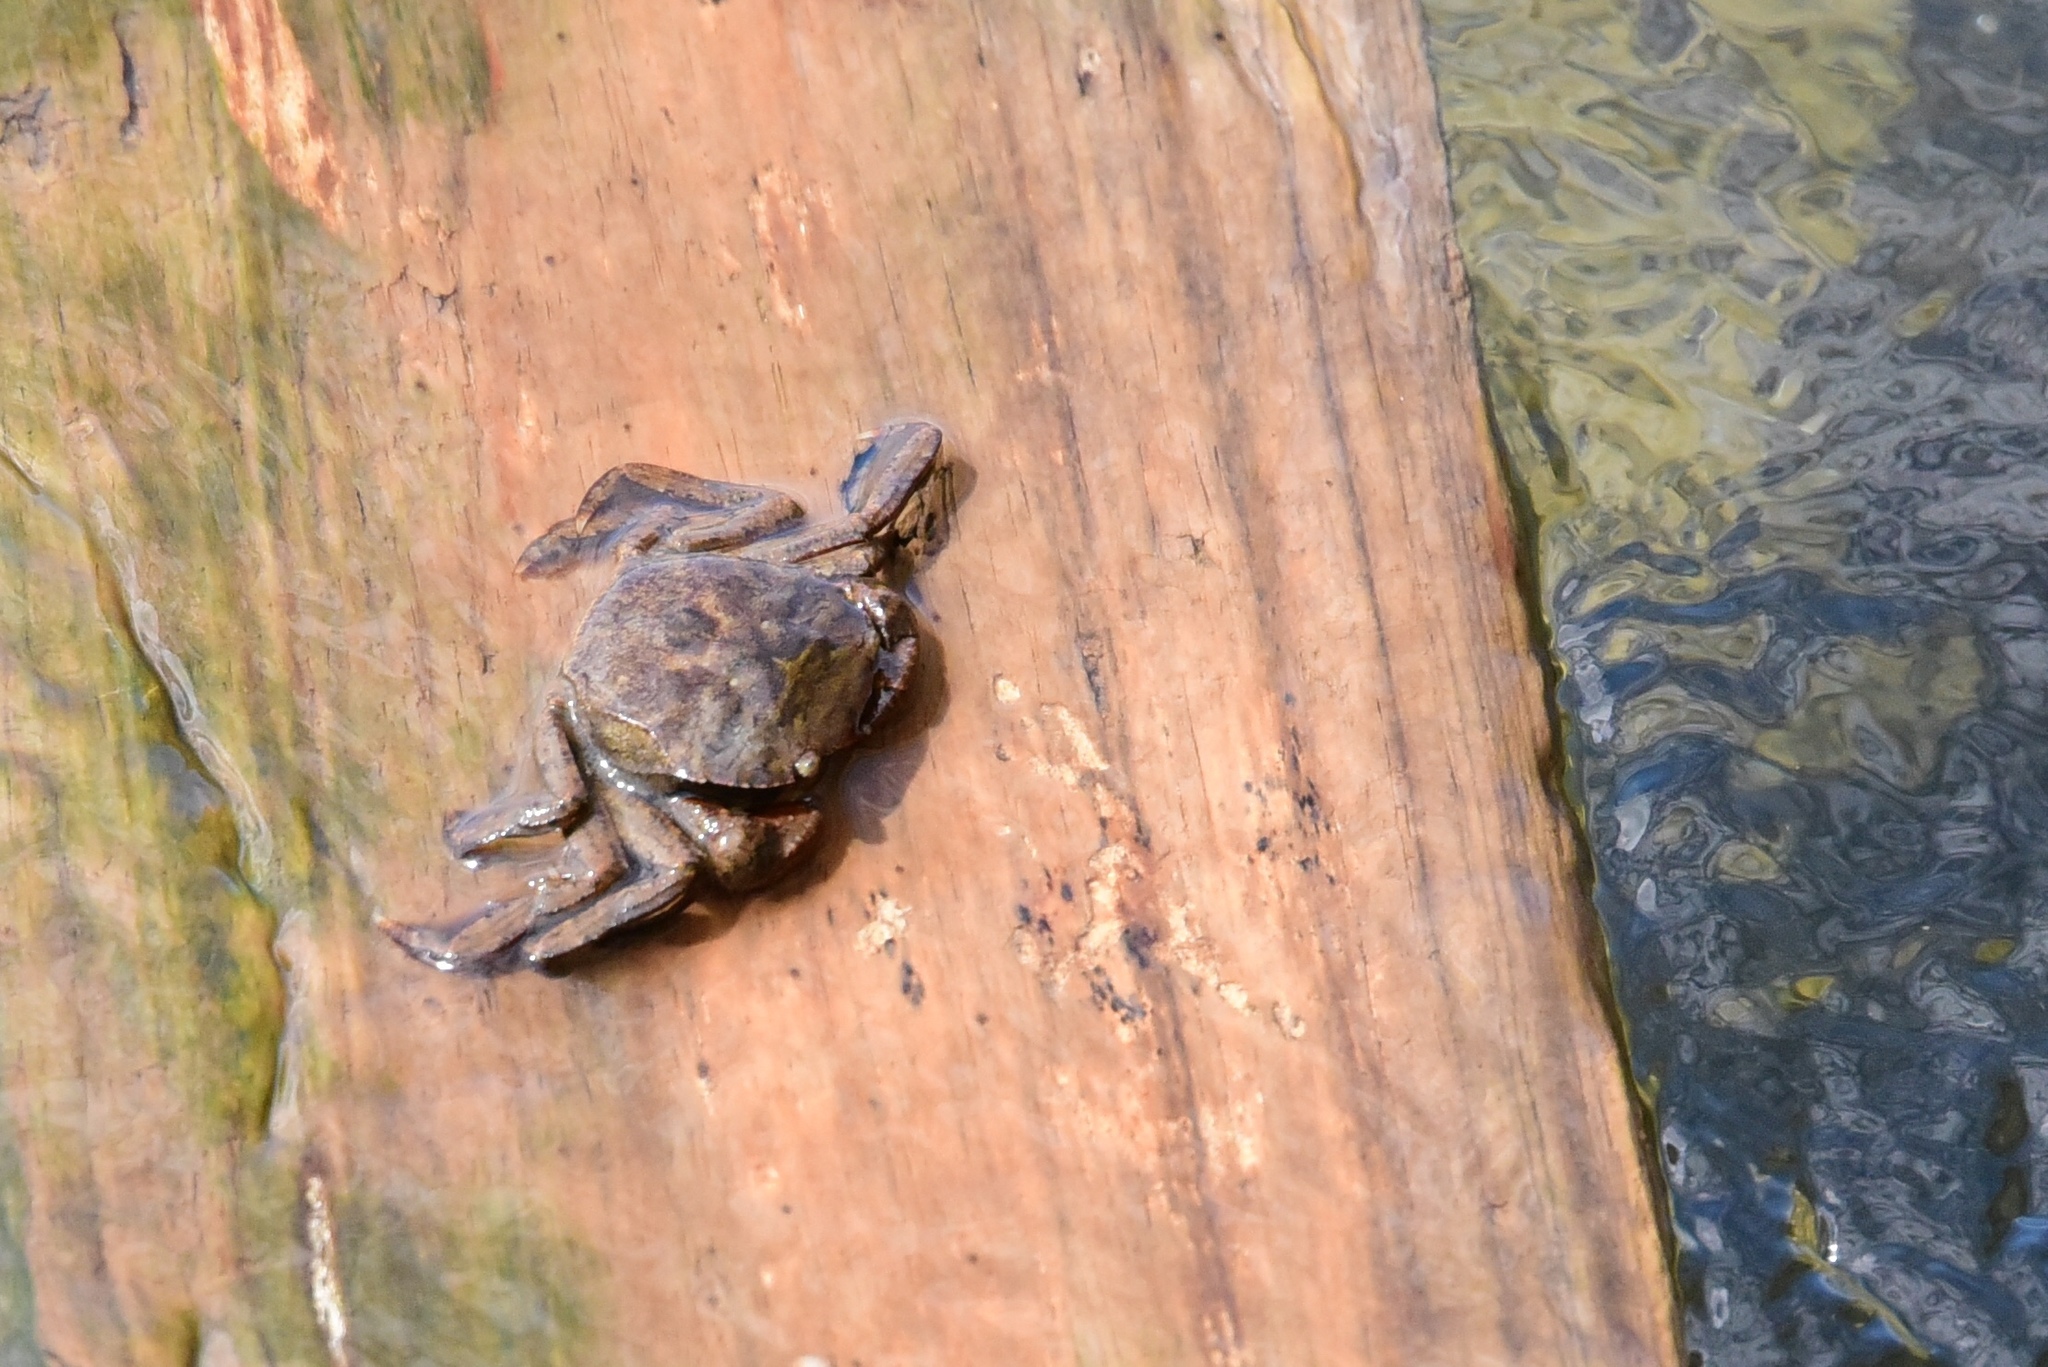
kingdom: Animalia
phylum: Arthropoda
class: Malacostraca
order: Decapoda
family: Varunidae
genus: Varuna
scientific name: Varuna litterata
